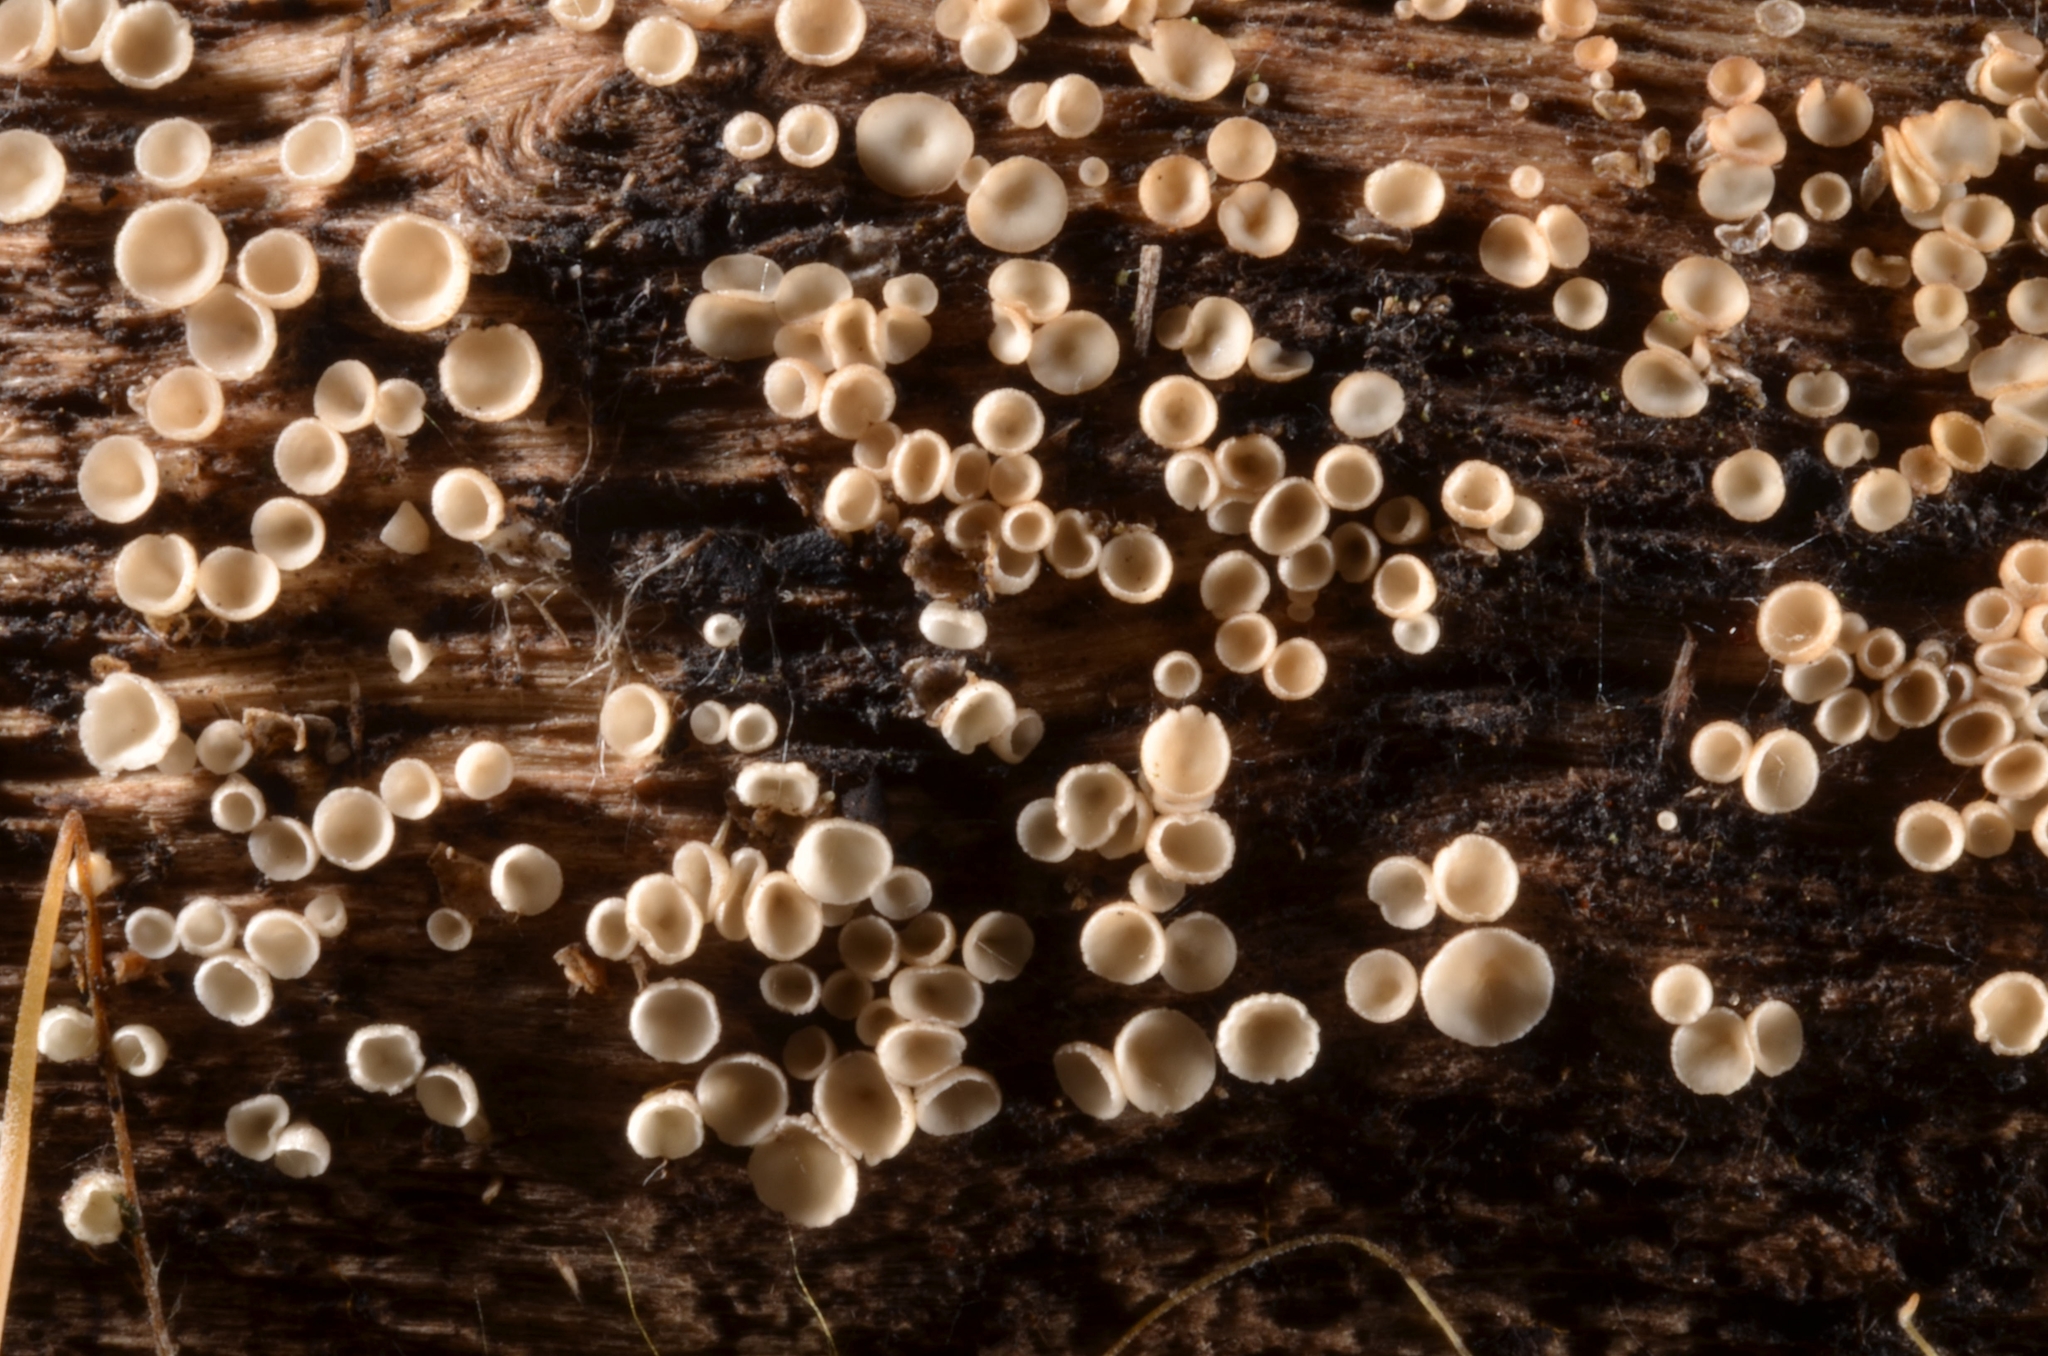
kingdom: Fungi
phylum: Ascomycota
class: Leotiomycetes
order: Helotiales
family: Pezizellaceae
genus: Calycina
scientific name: Calycina vulgaris
